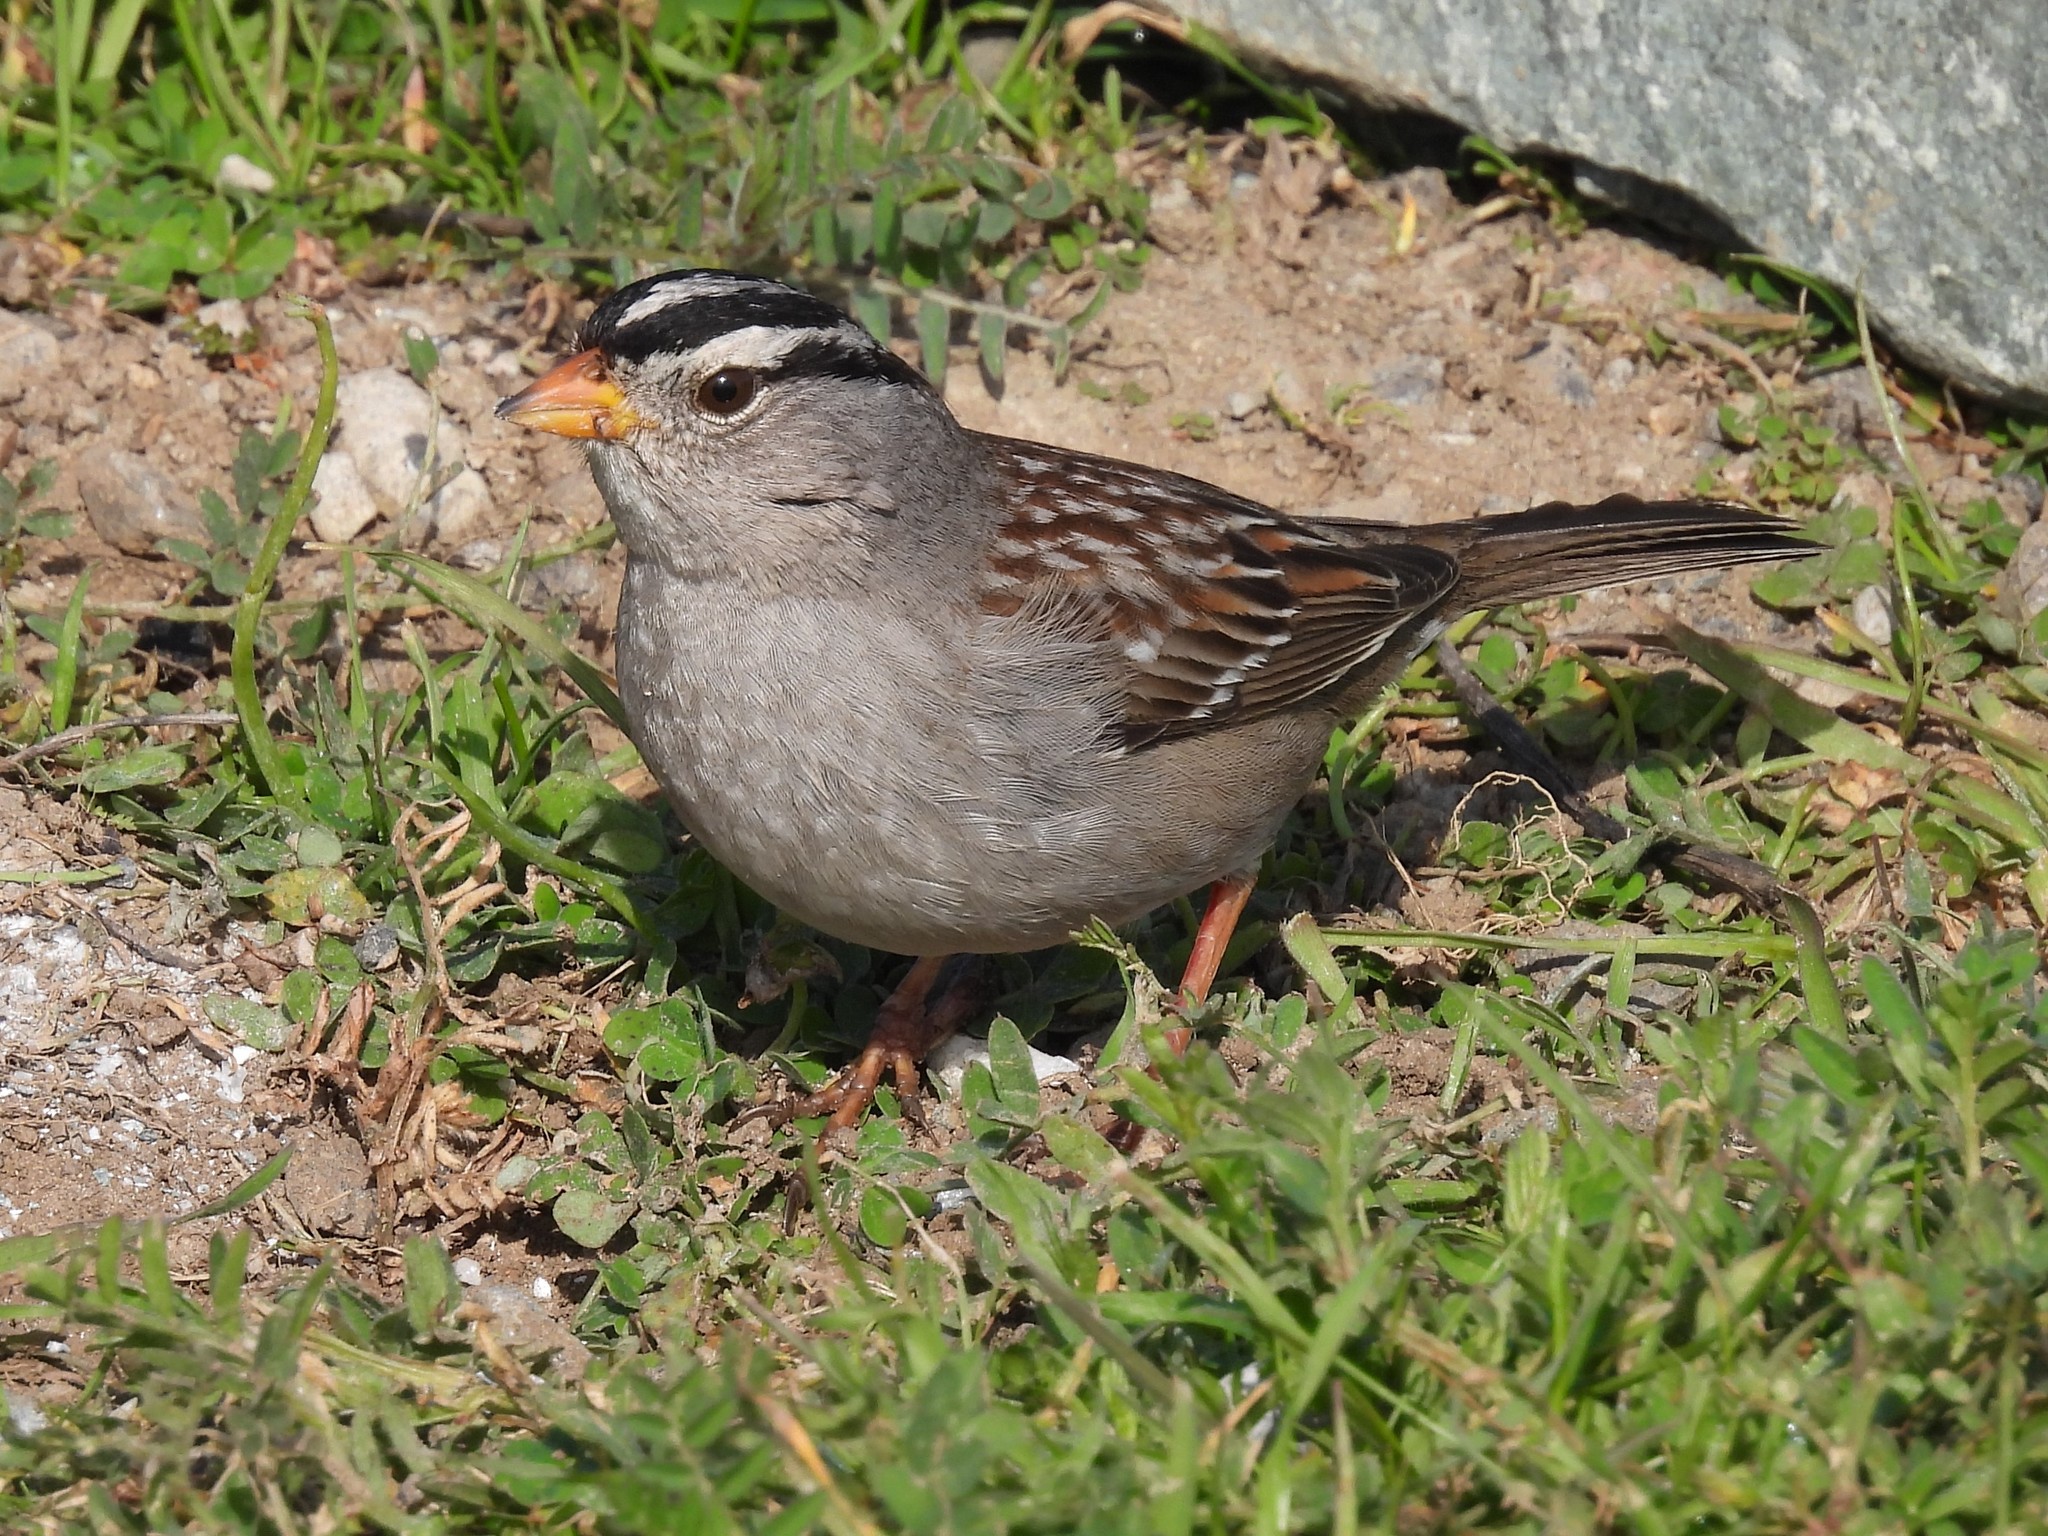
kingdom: Animalia
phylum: Chordata
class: Aves
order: Passeriformes
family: Passerellidae
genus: Zonotrichia
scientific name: Zonotrichia leucophrys
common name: White-crowned sparrow
